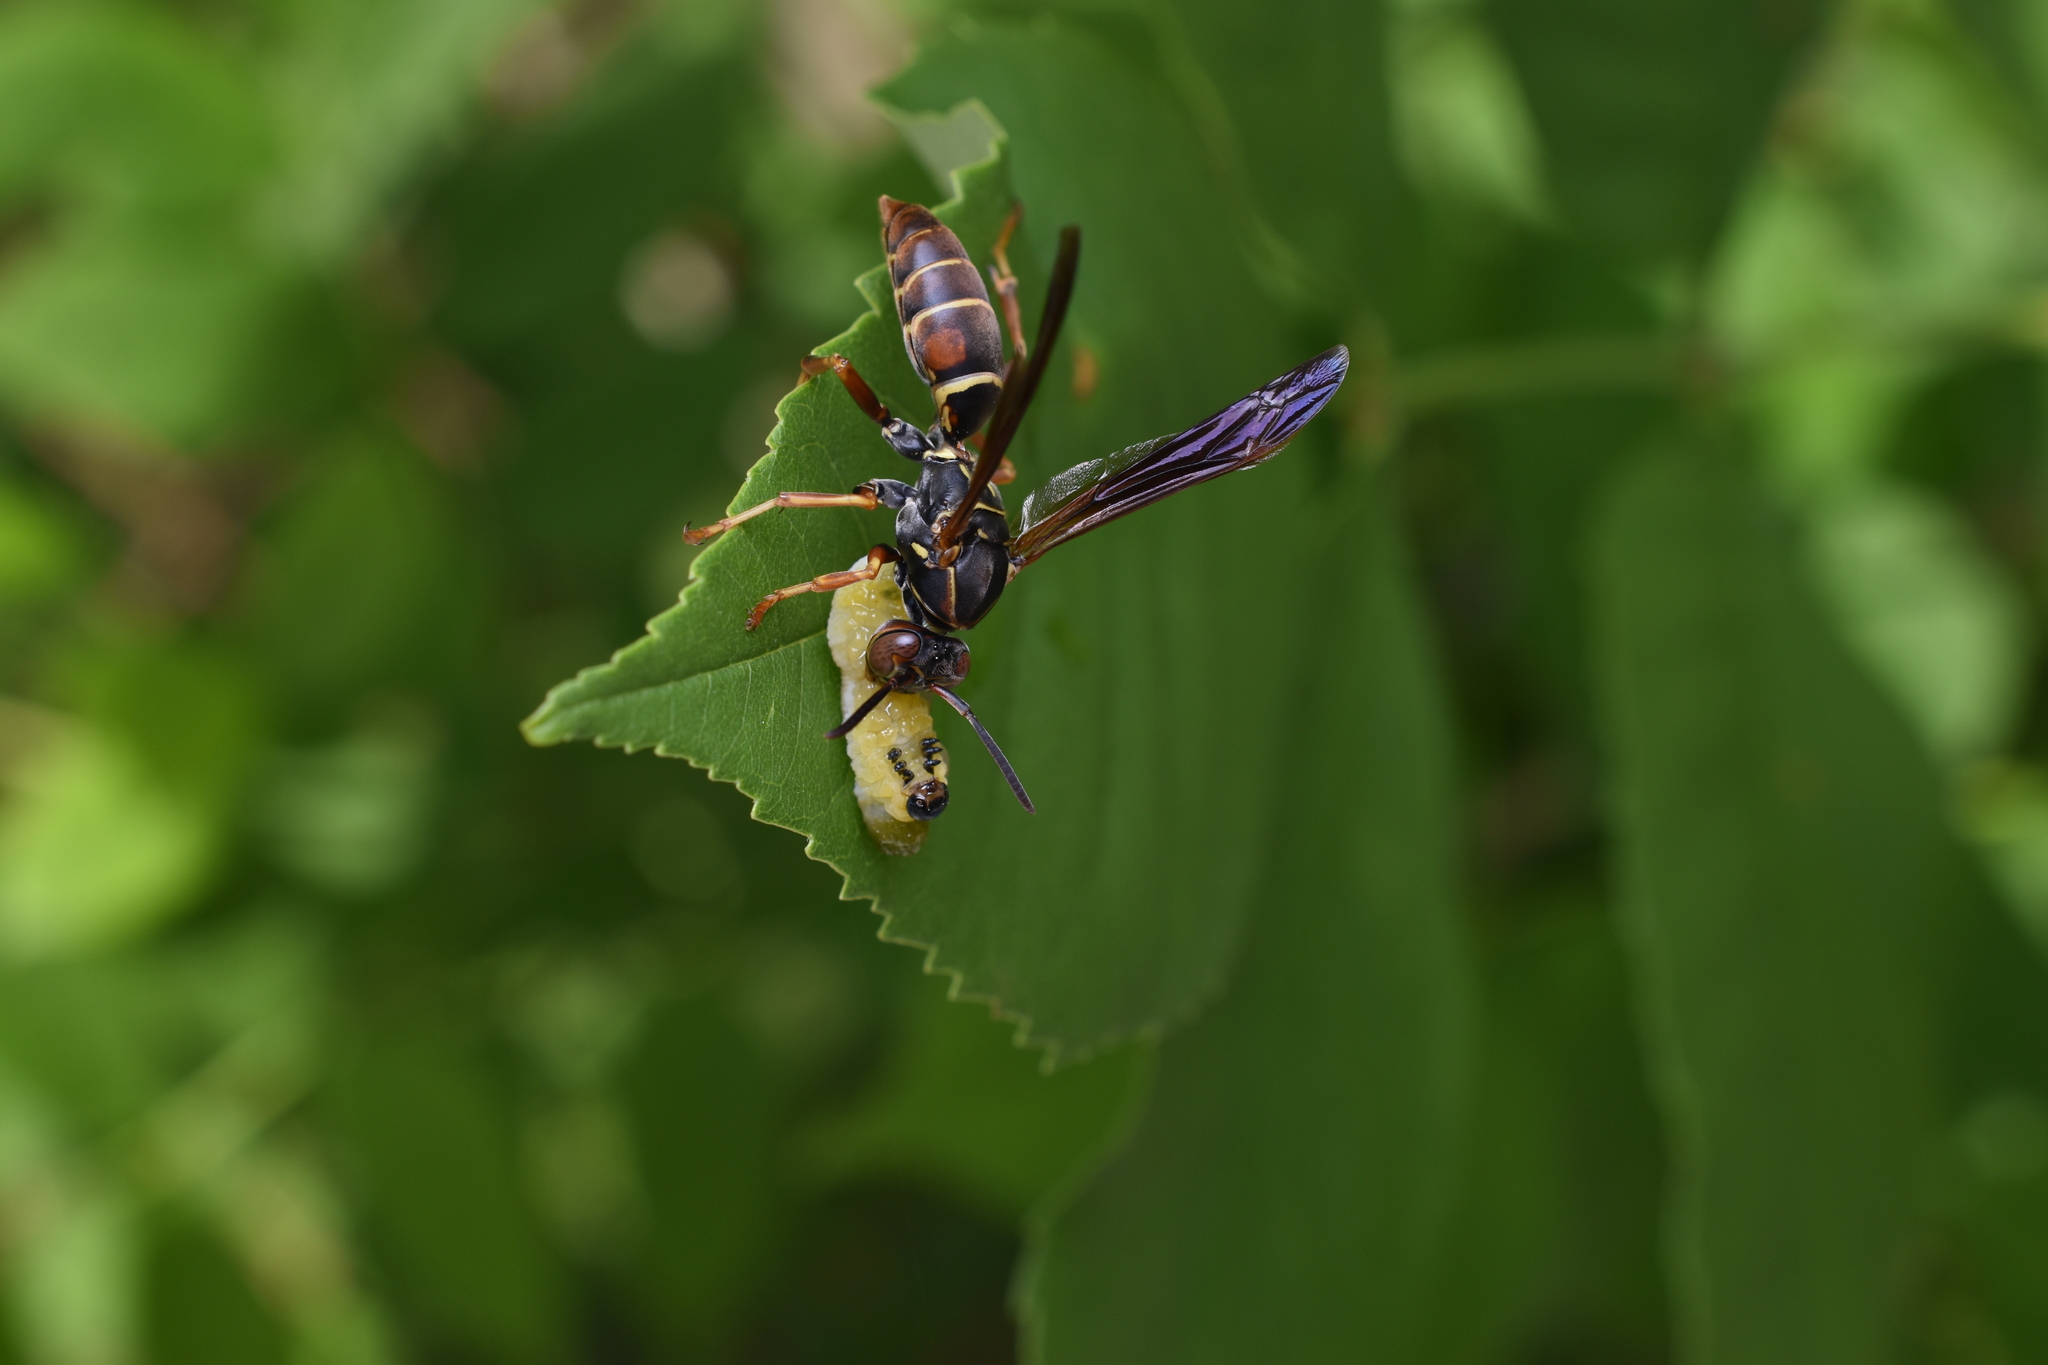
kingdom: Animalia
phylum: Arthropoda
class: Insecta
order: Hymenoptera
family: Eumenidae
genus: Polistes
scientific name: Polistes fuscatus
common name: Dark paper wasp
